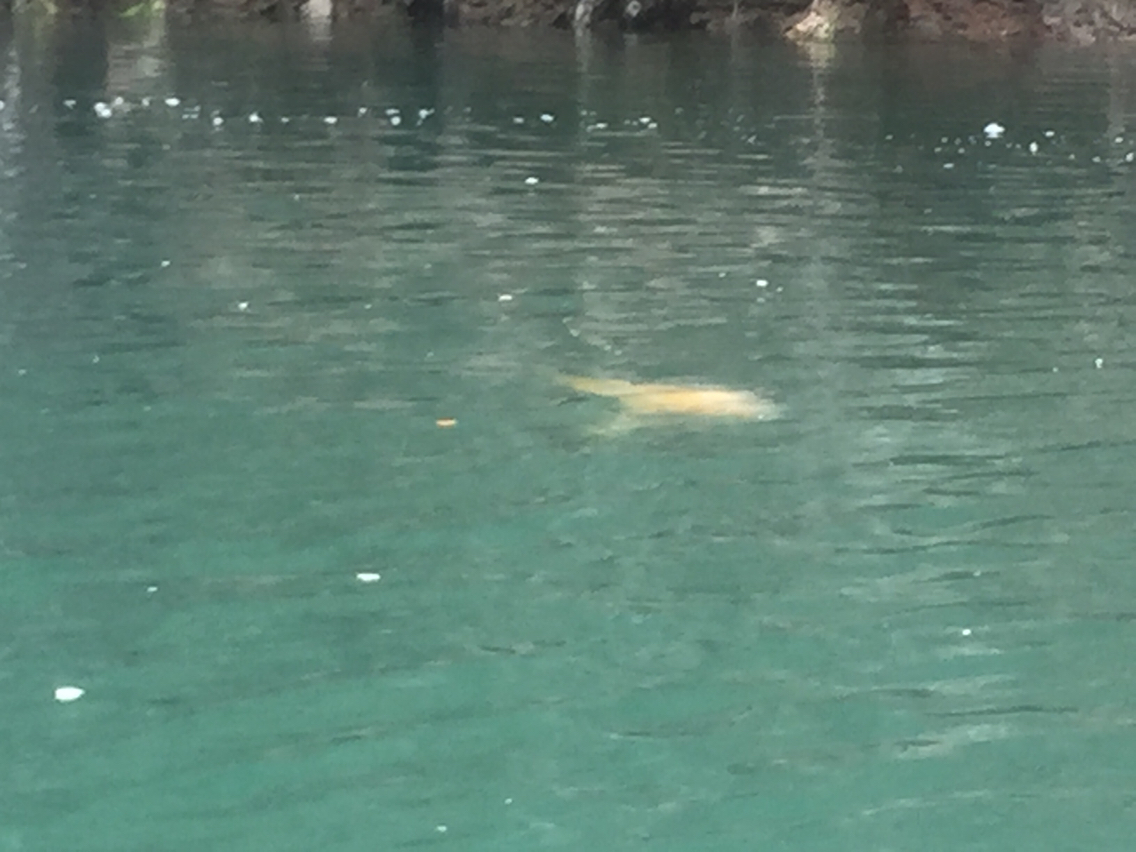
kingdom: Animalia
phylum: Cnidaria
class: Scyphozoa
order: Semaeostomeae
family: Phacellophoridae
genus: Phacellophora
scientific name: Phacellophora camtschatica
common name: Fried-egg jellyfish
